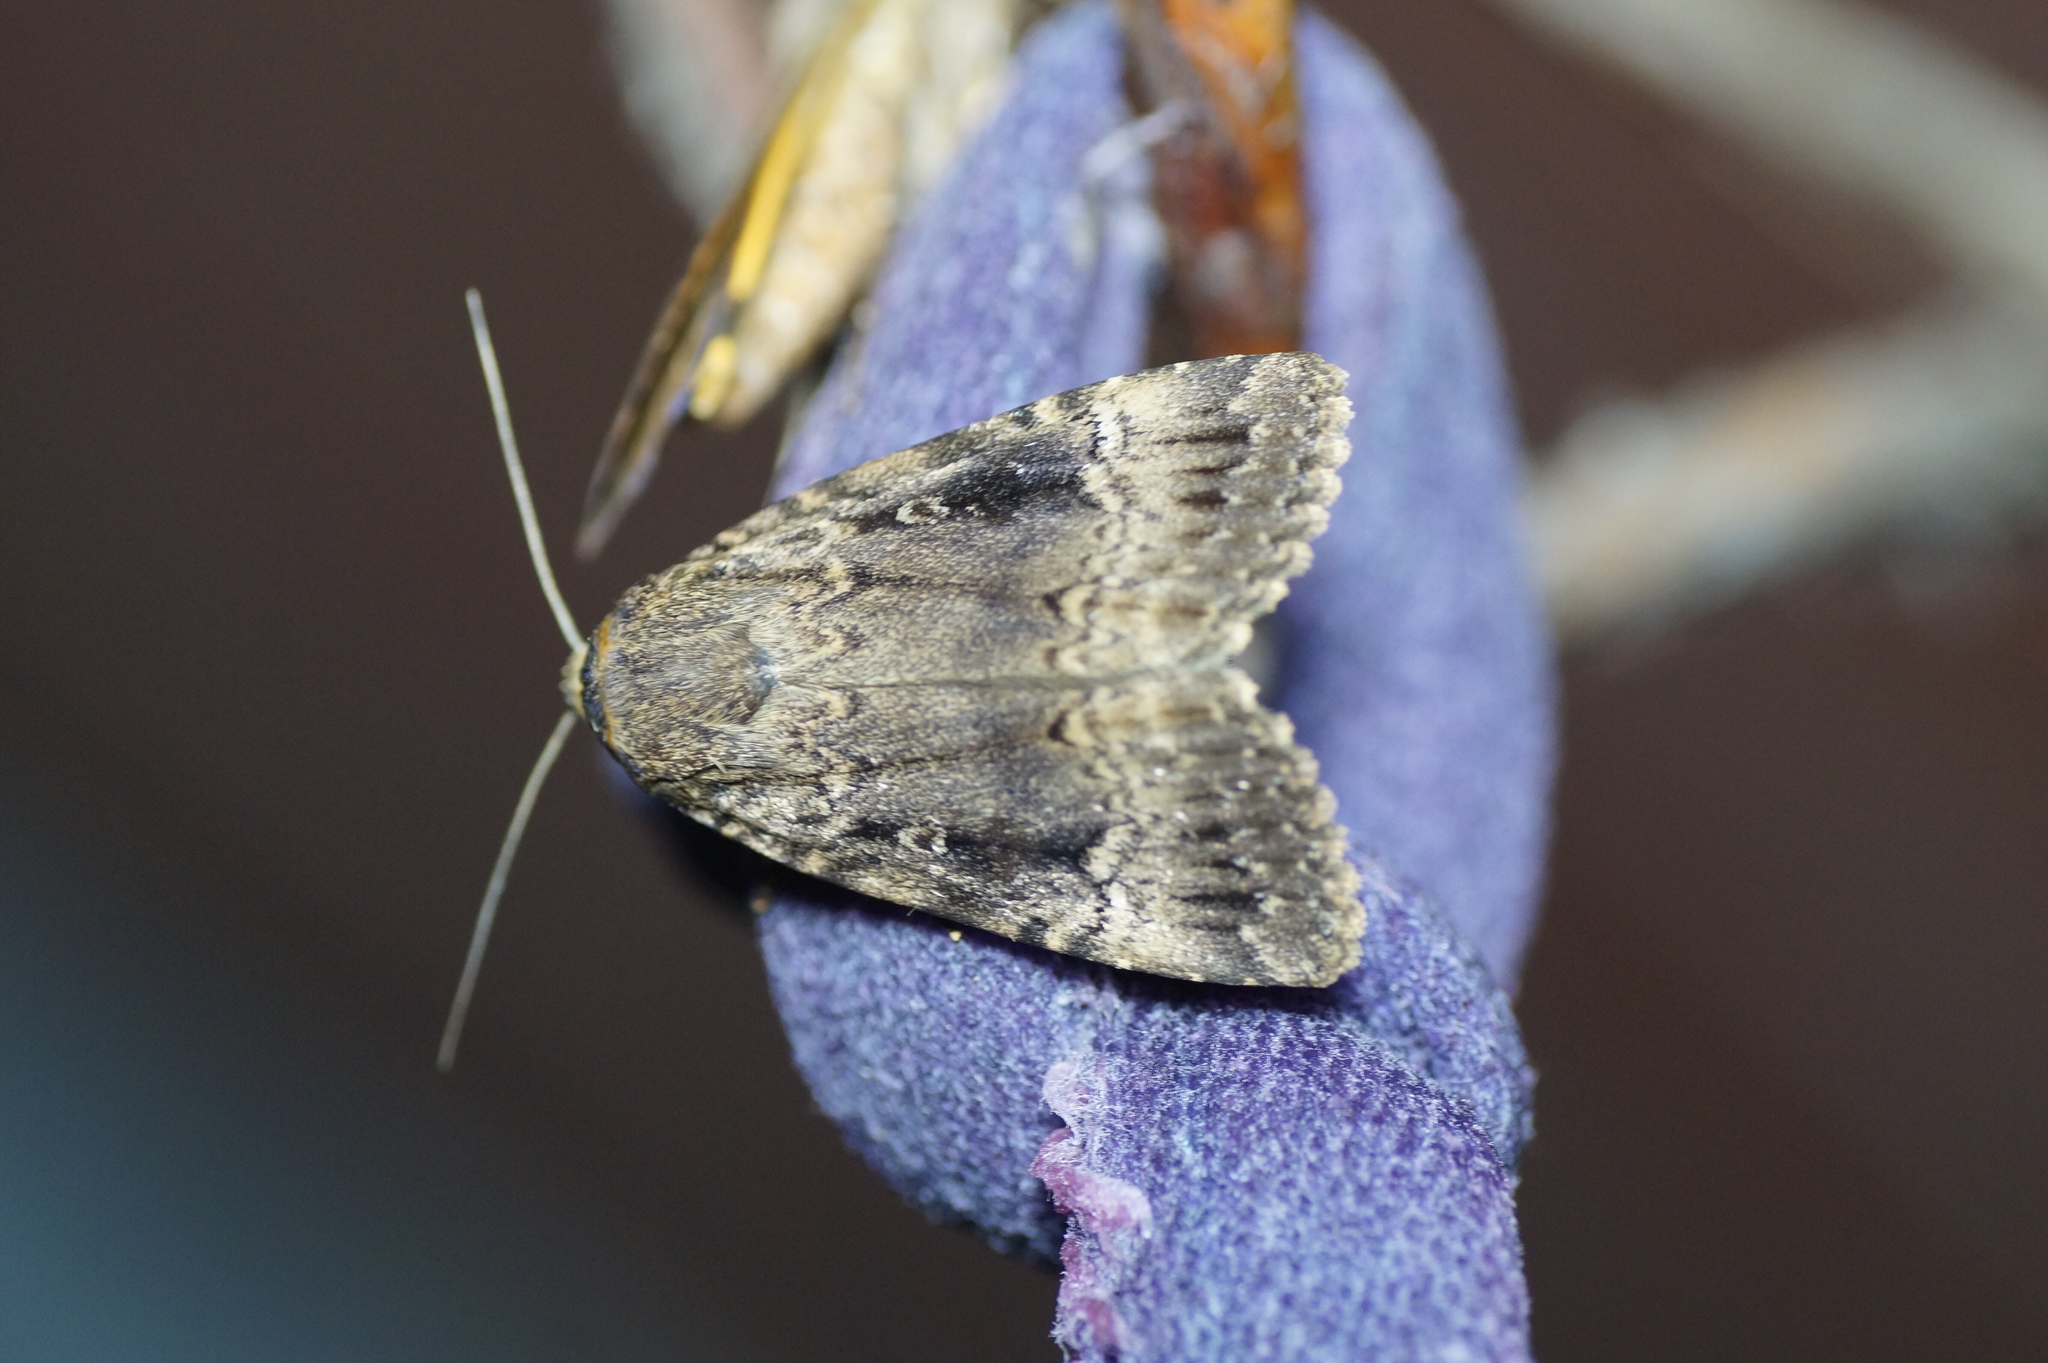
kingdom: Animalia
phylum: Arthropoda
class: Insecta
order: Lepidoptera
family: Noctuidae
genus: Amphipyra
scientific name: Amphipyra pyramidea
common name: Copper underwing
